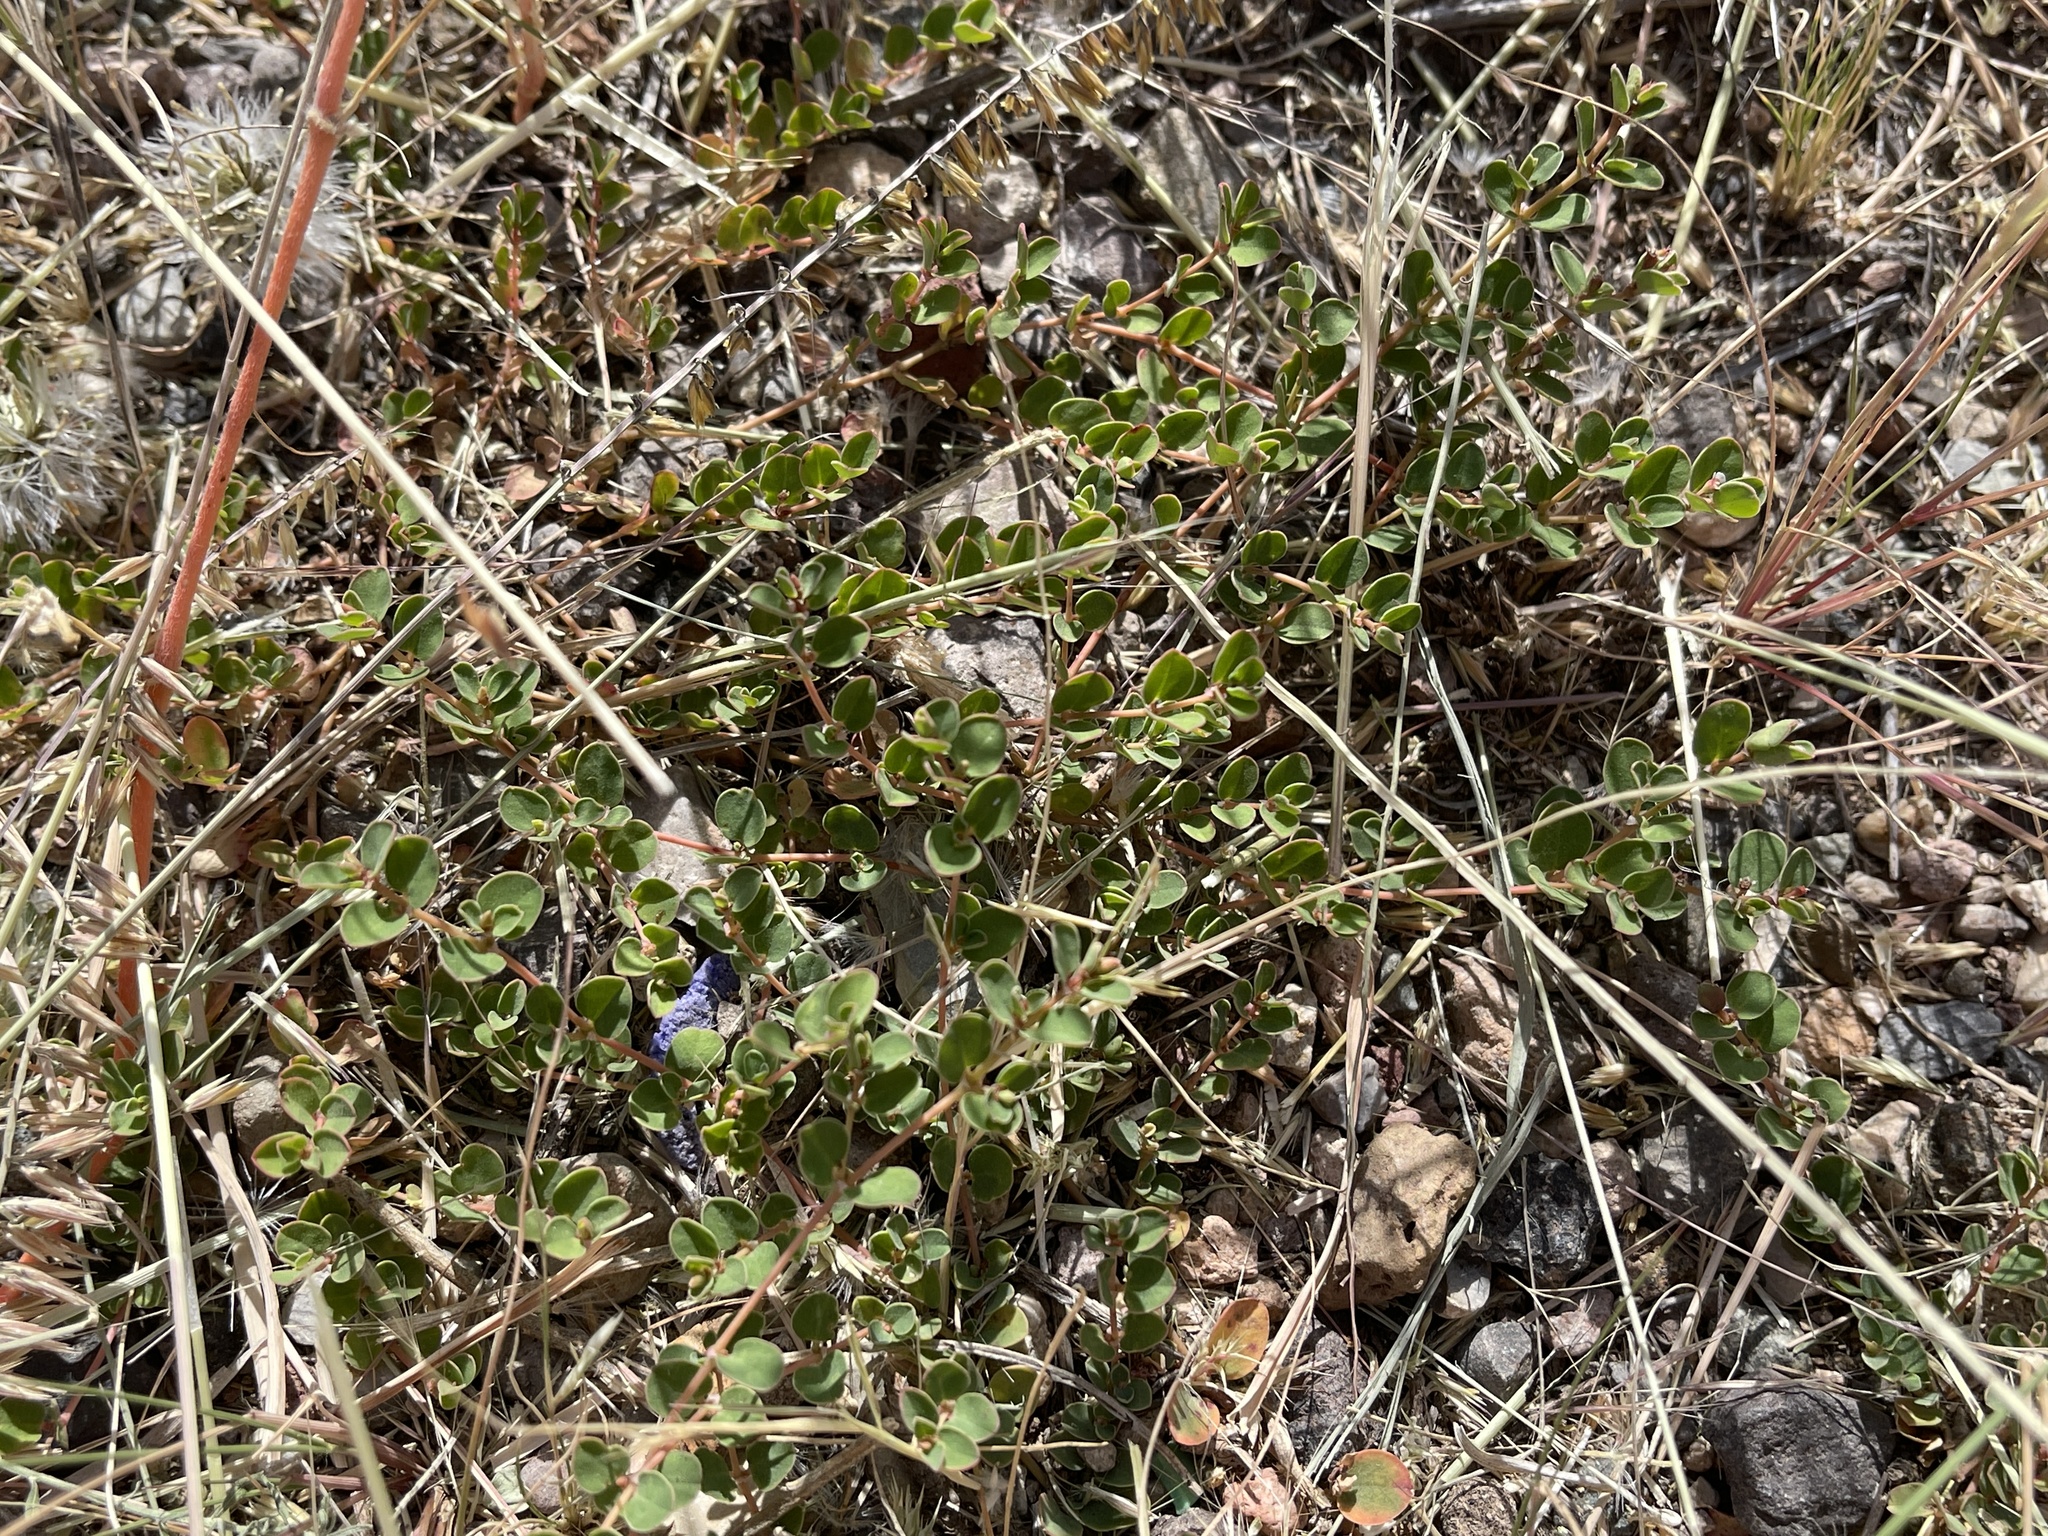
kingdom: Plantae
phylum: Tracheophyta
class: Magnoliopsida
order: Malpighiales
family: Euphorbiaceae
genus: Euphorbia
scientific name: Euphorbia albomarginata
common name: Whitemargin sandmat
